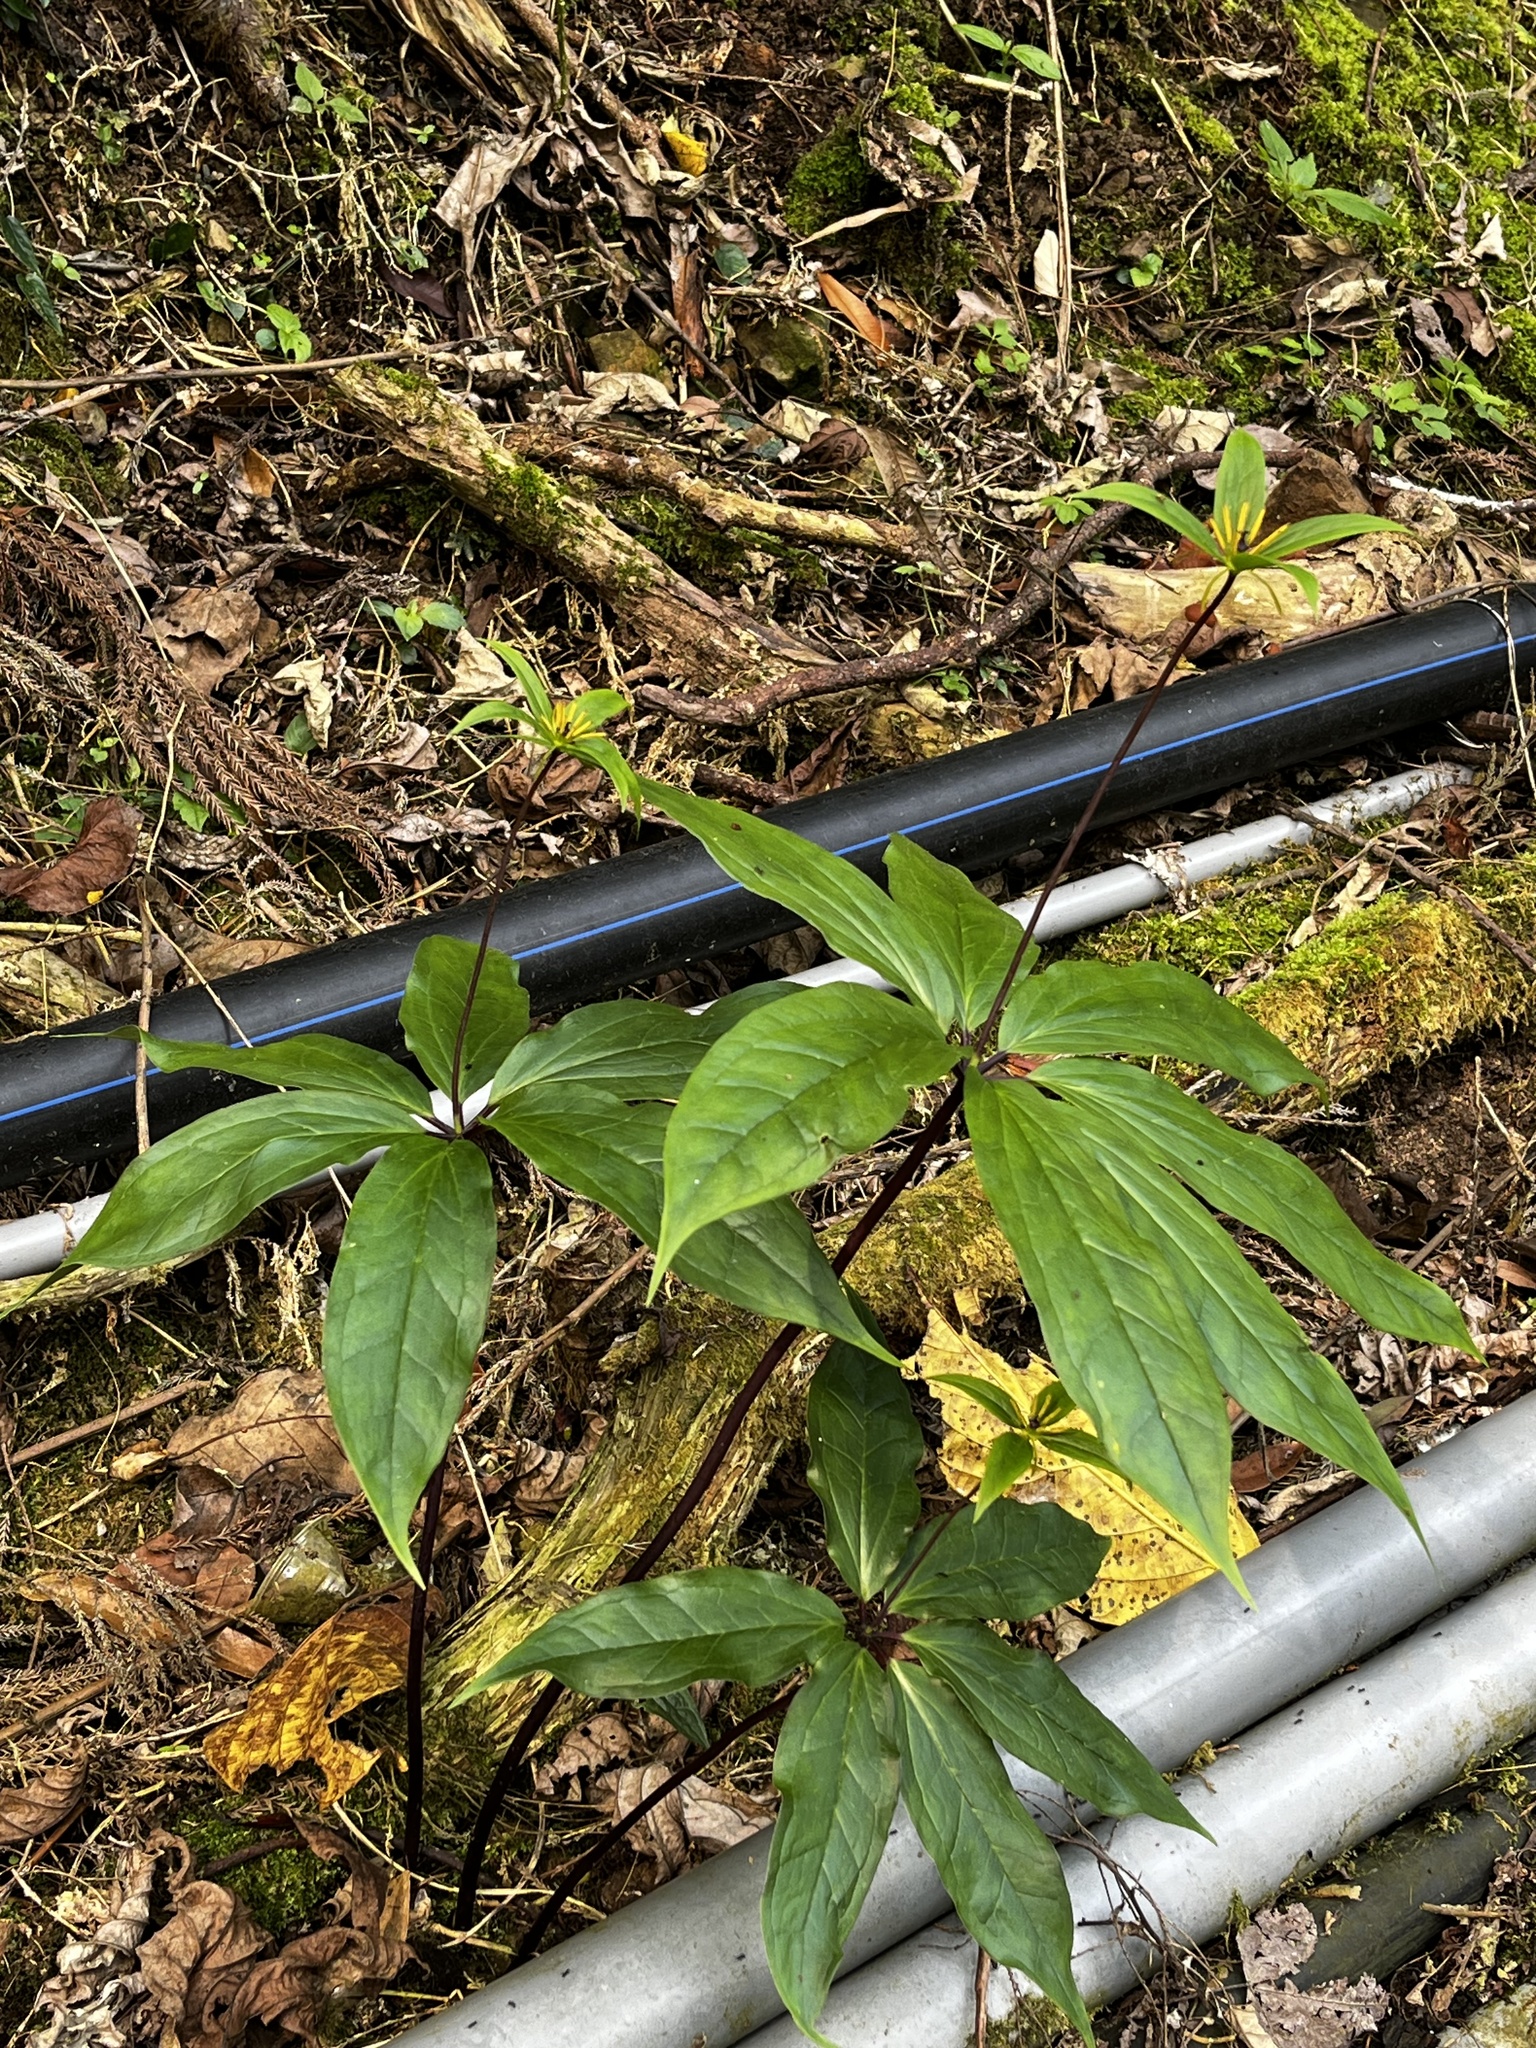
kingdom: Plantae
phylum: Tracheophyta
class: Liliopsida
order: Liliales
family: Melanthiaceae
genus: Paris
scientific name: Paris polyphylla
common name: Love apple
